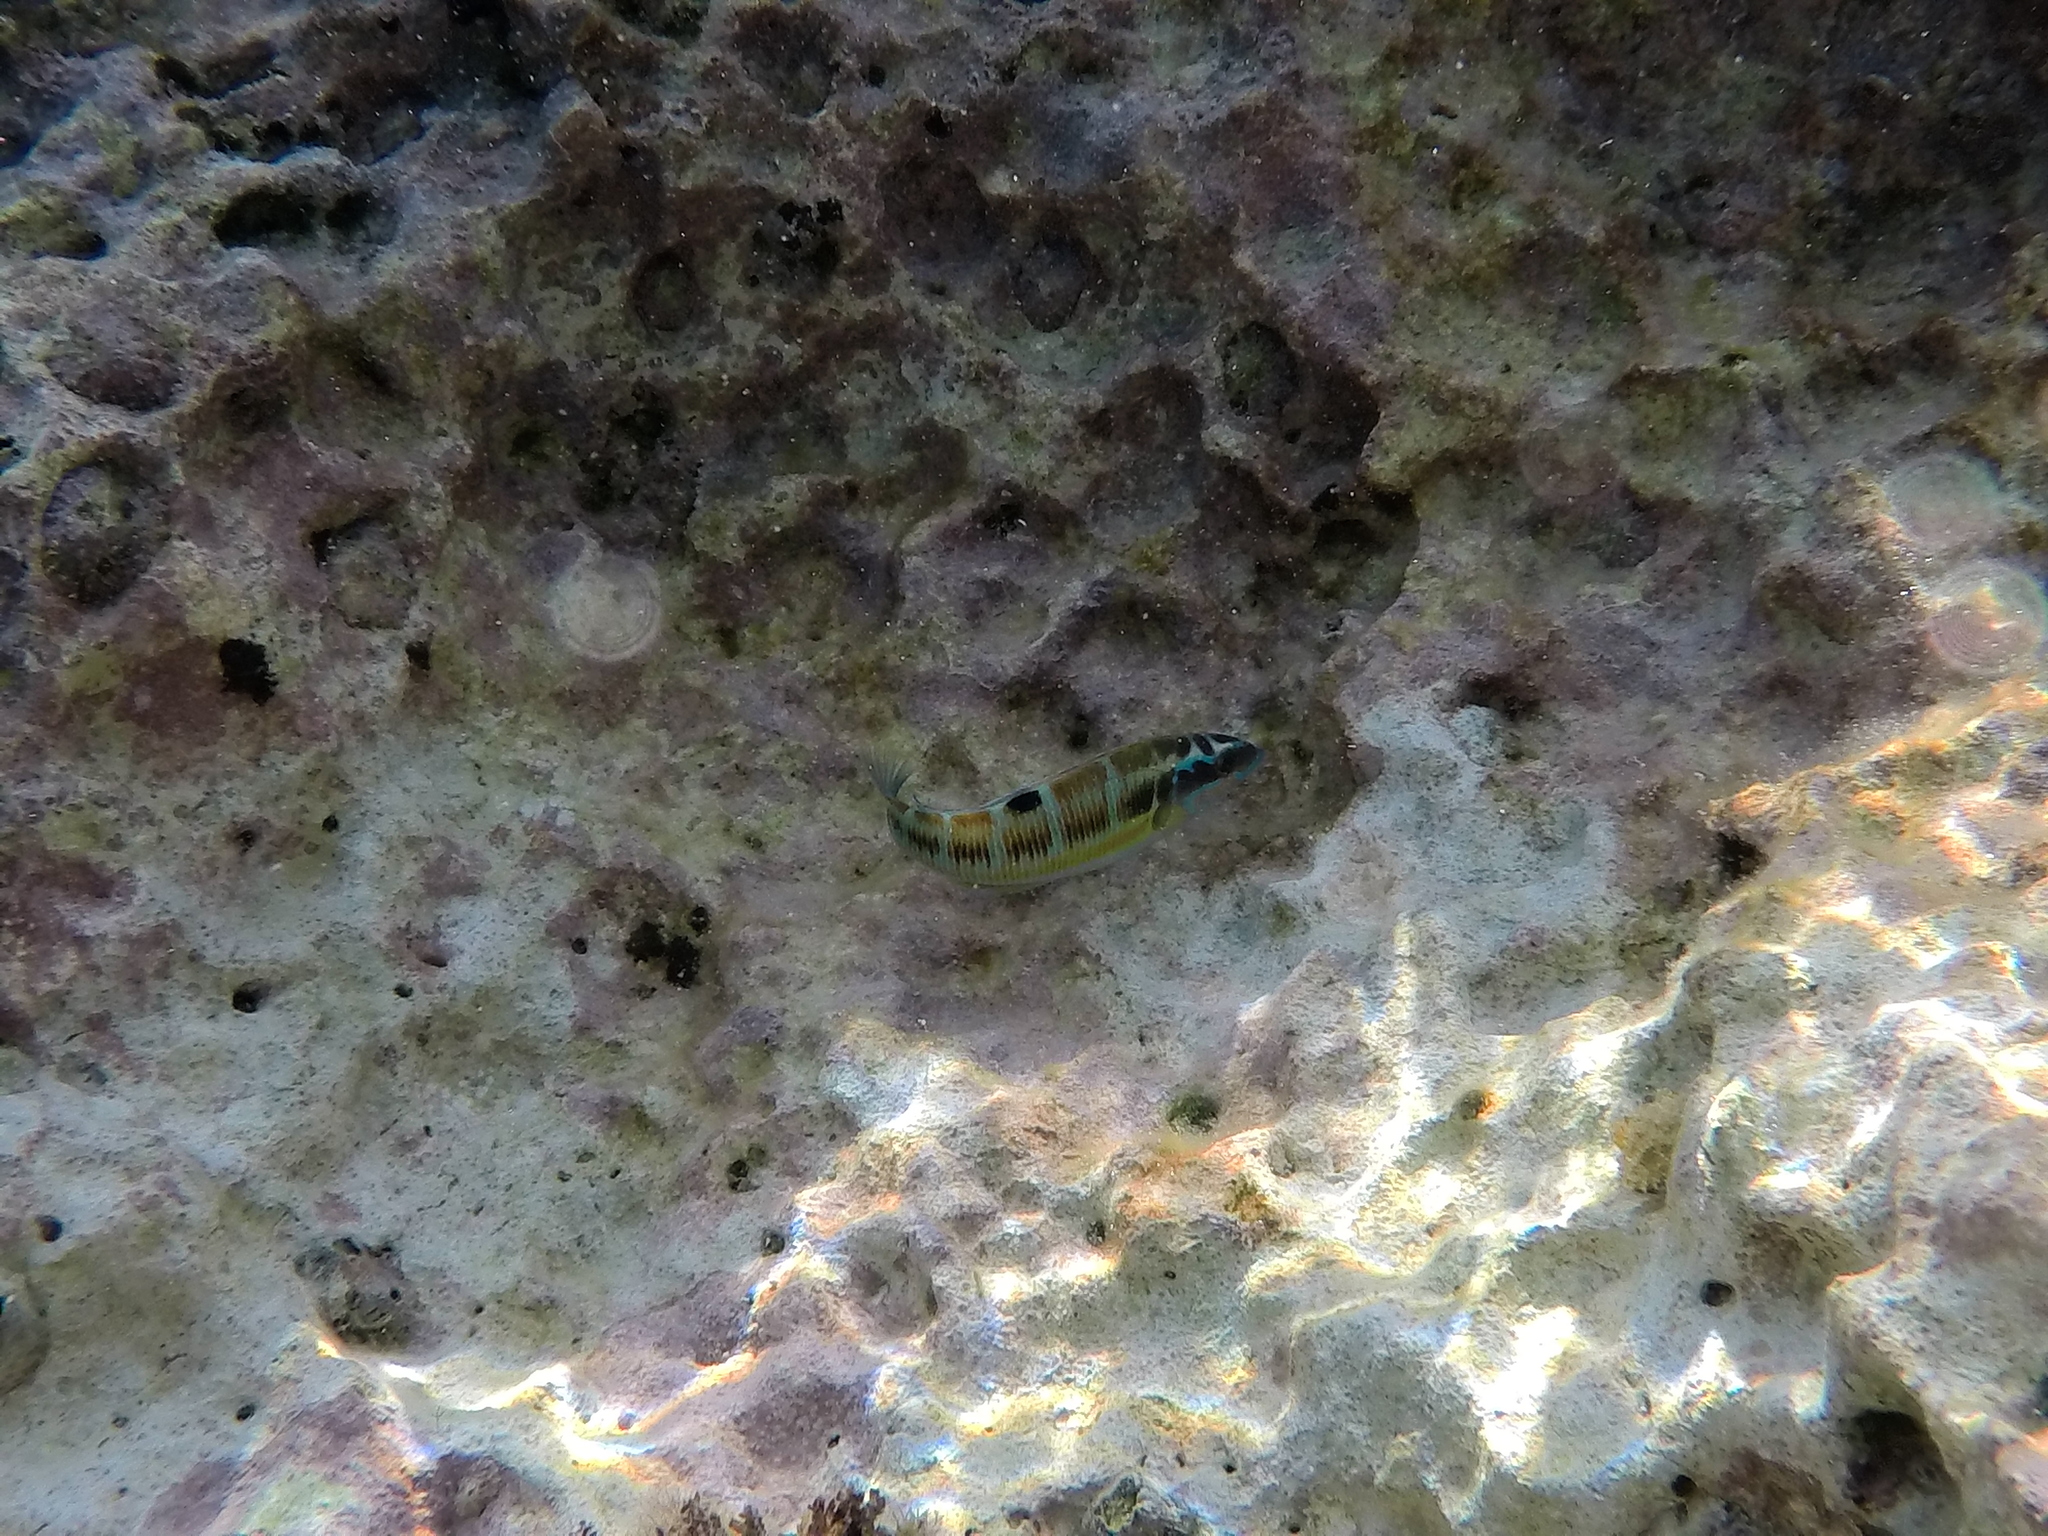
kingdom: Animalia
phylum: Chordata
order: Perciformes
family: Labridae
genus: Thalassoma
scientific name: Thalassoma pavo
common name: Ornate wrasse
